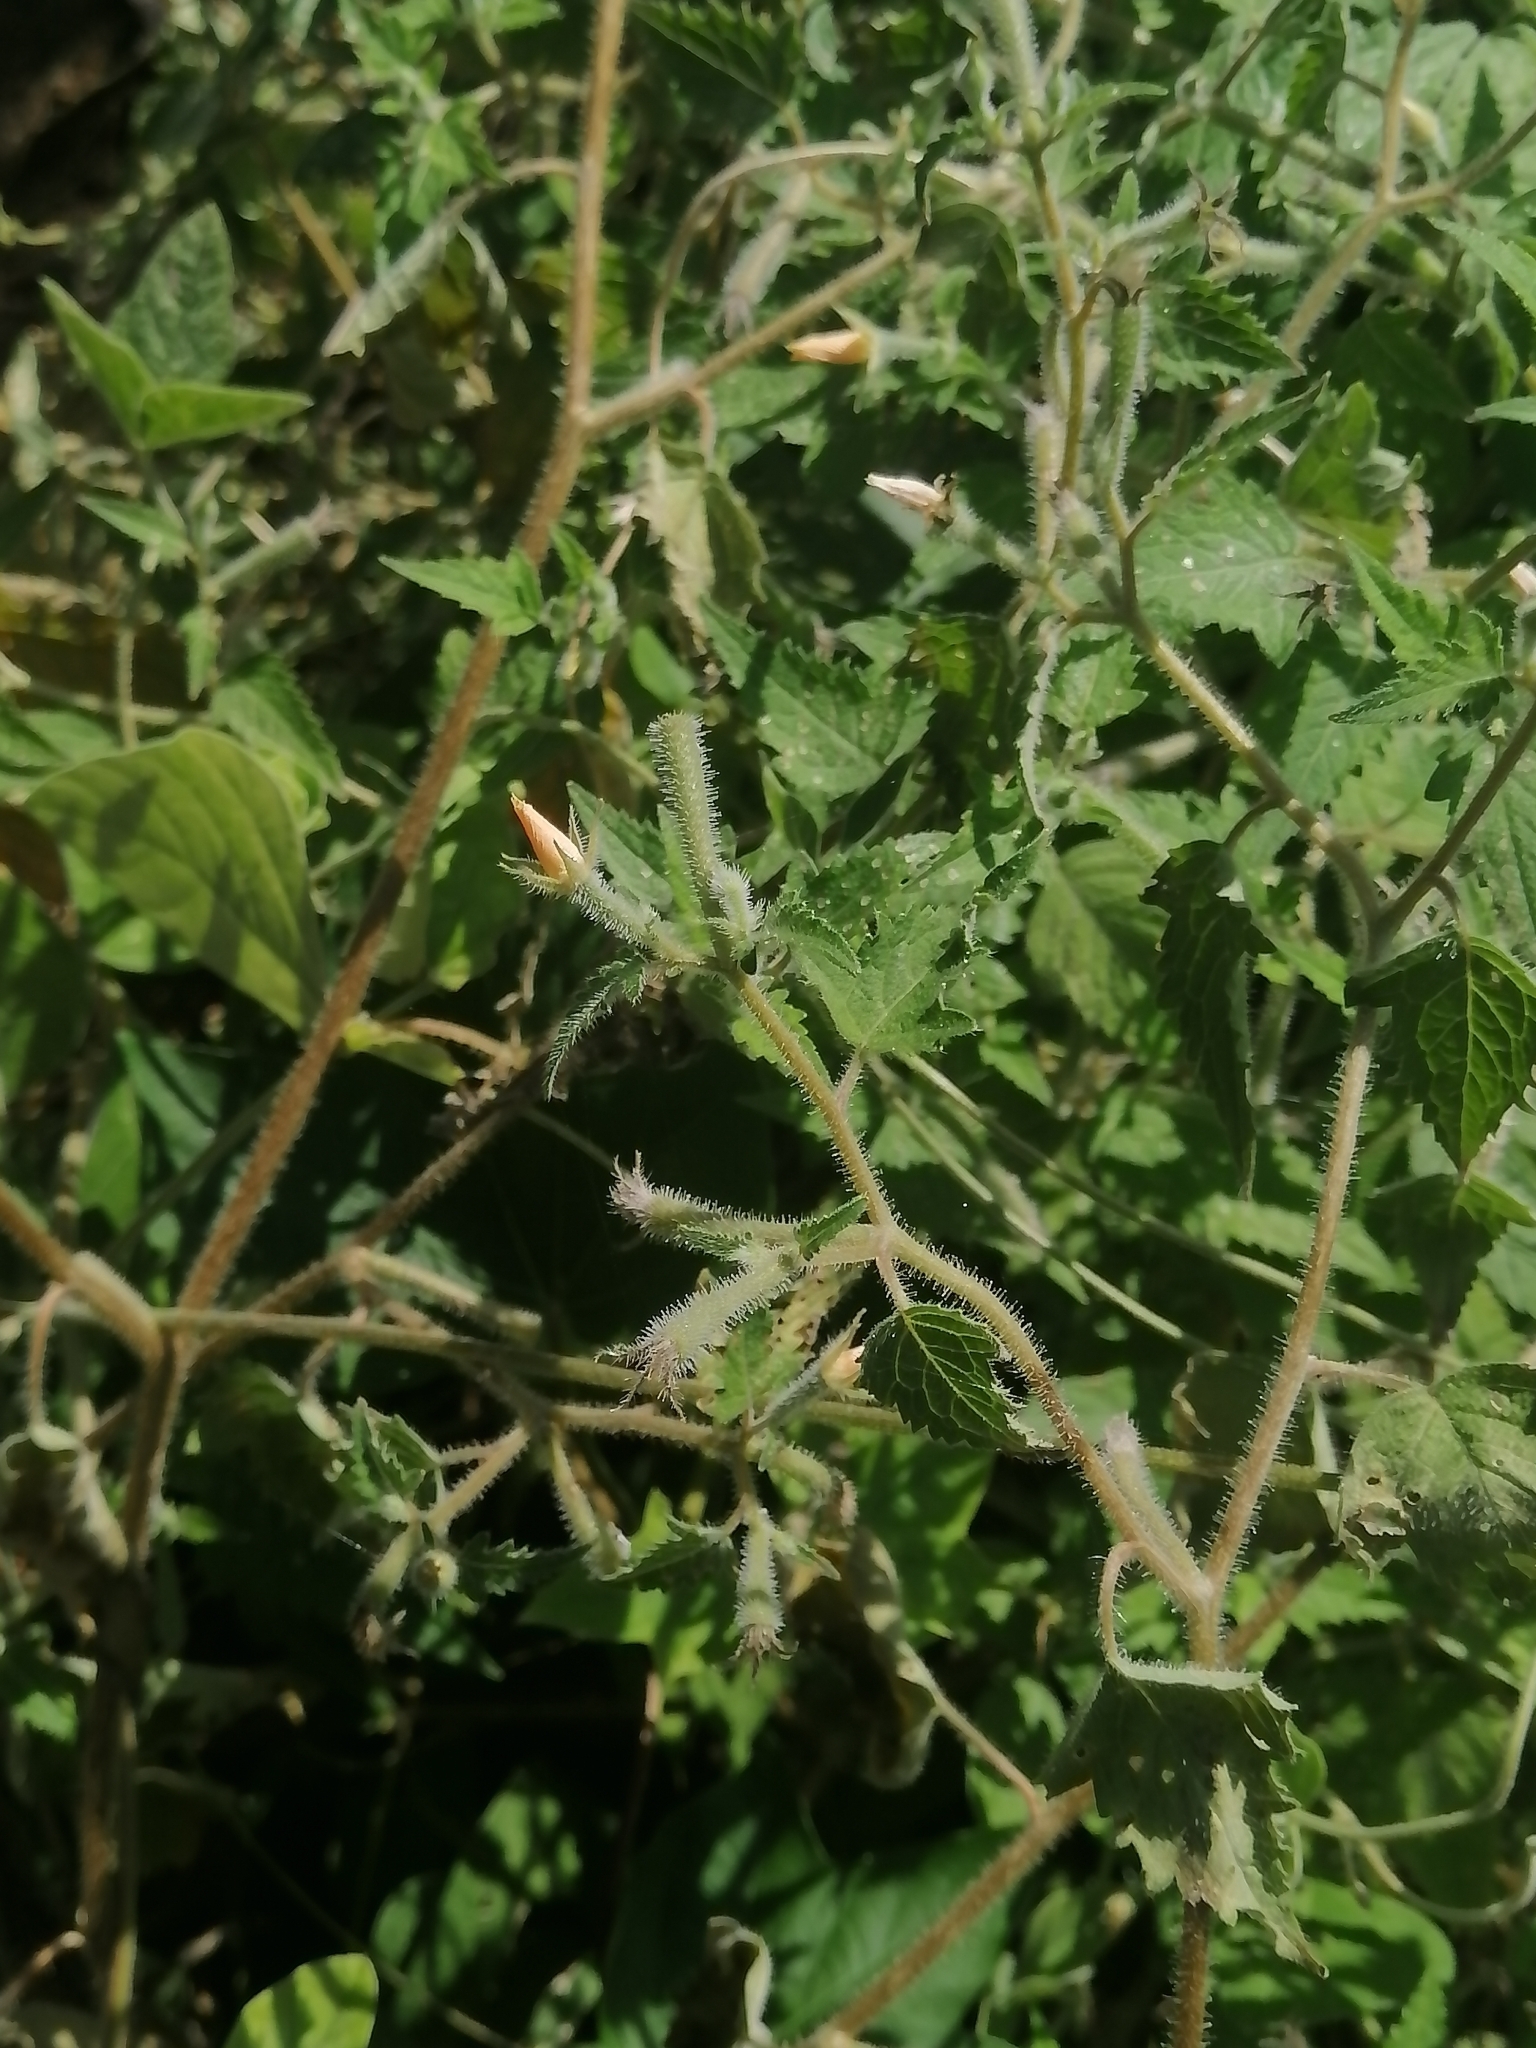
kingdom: Plantae
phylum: Tracheophyta
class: Magnoliopsida
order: Cornales
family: Loasaceae
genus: Mentzelia
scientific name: Mentzelia aspera
